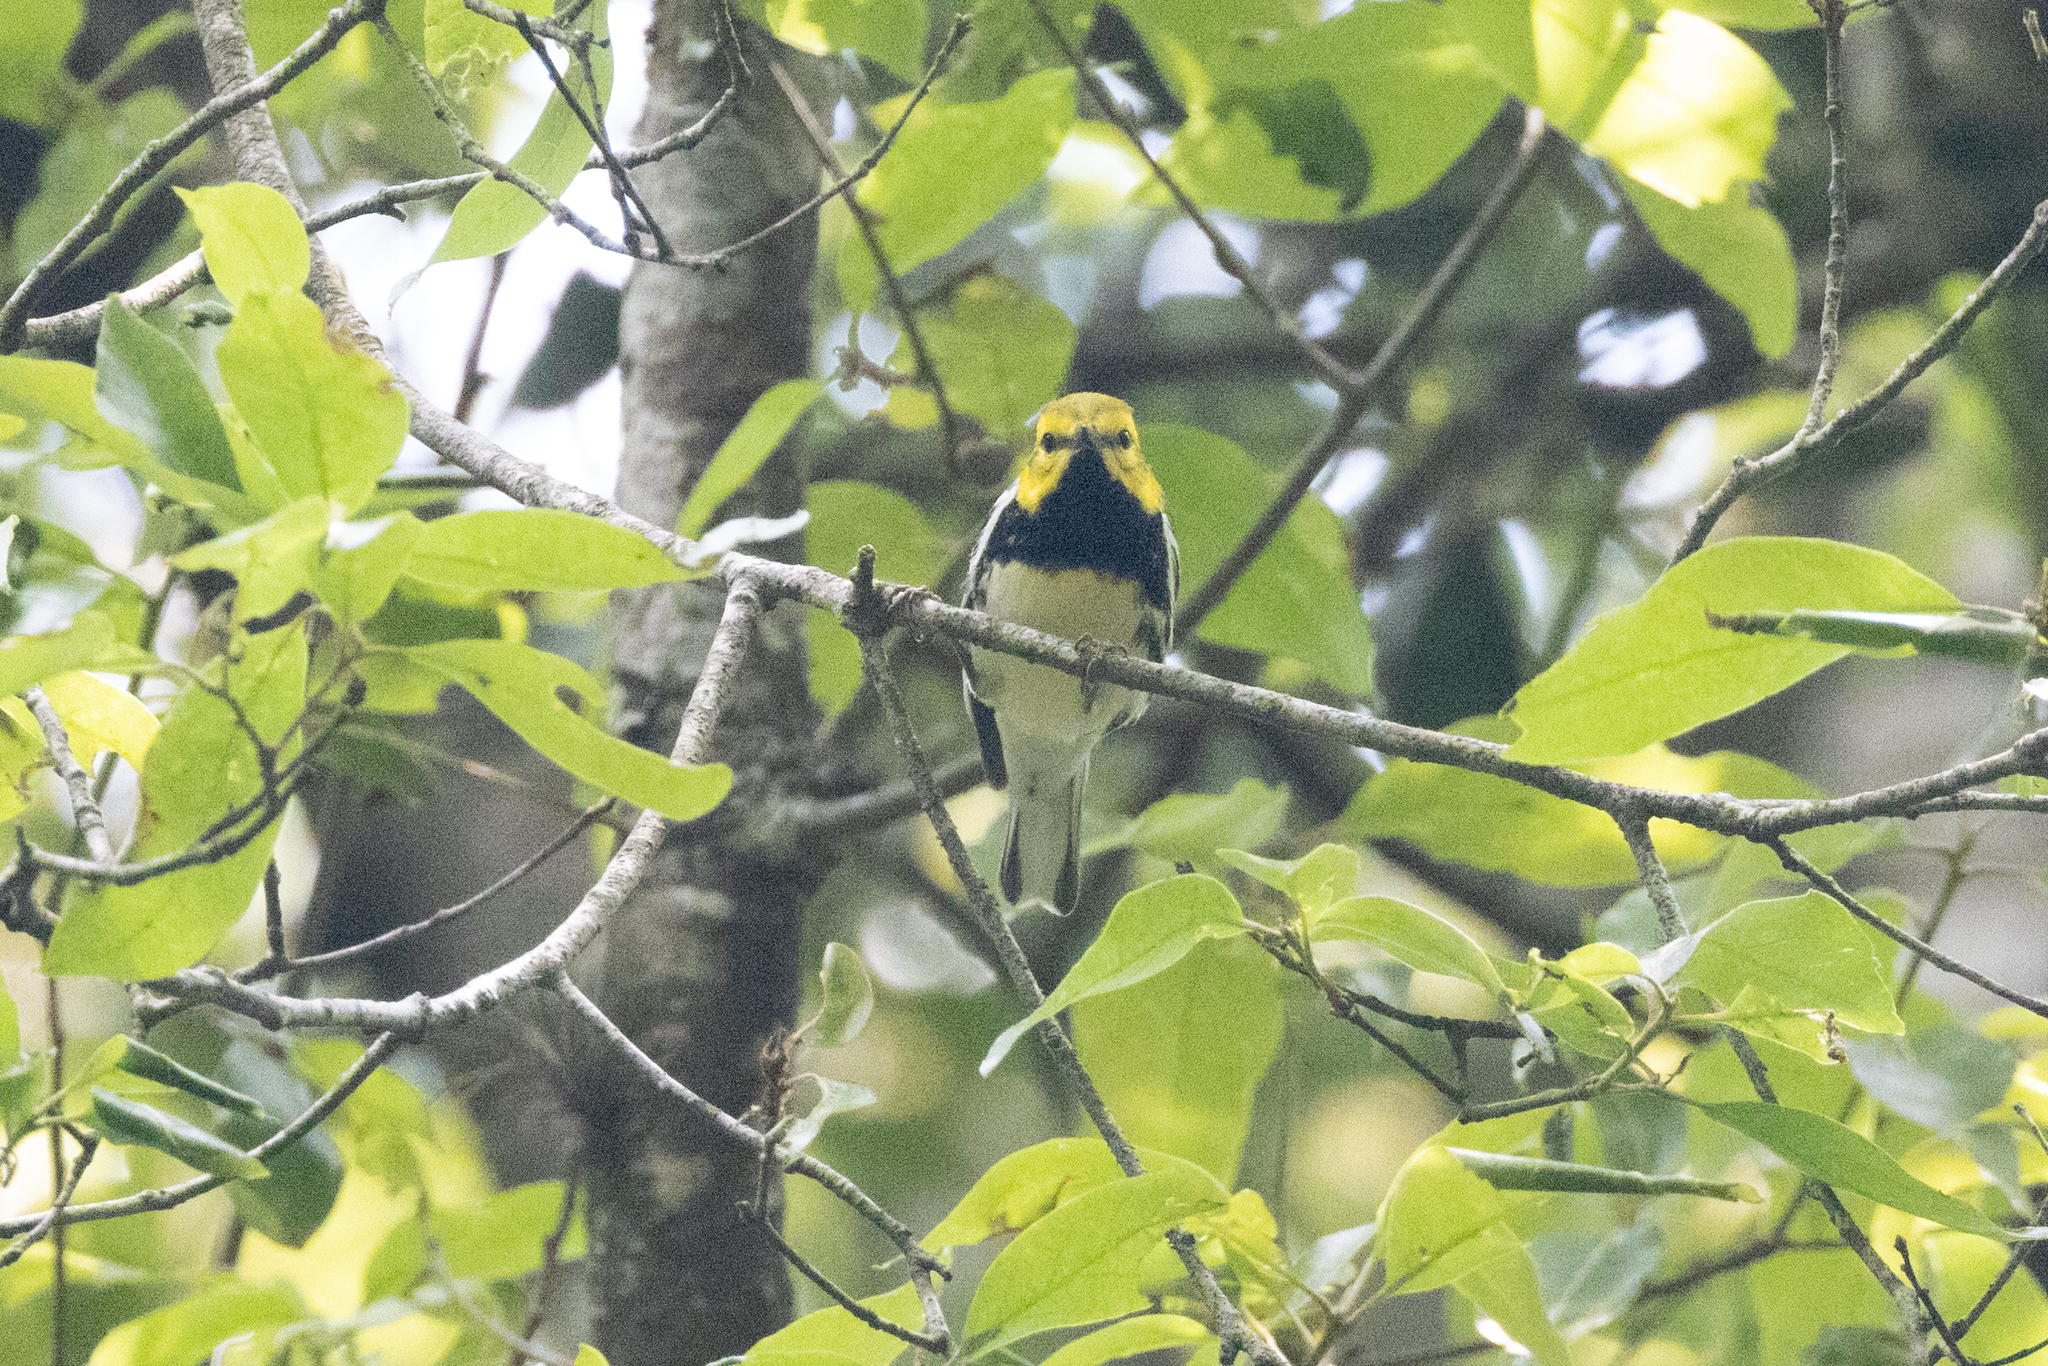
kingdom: Animalia
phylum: Chordata
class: Aves
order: Passeriformes
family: Parulidae
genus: Setophaga
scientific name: Setophaga virens
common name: Black-throated green warbler
